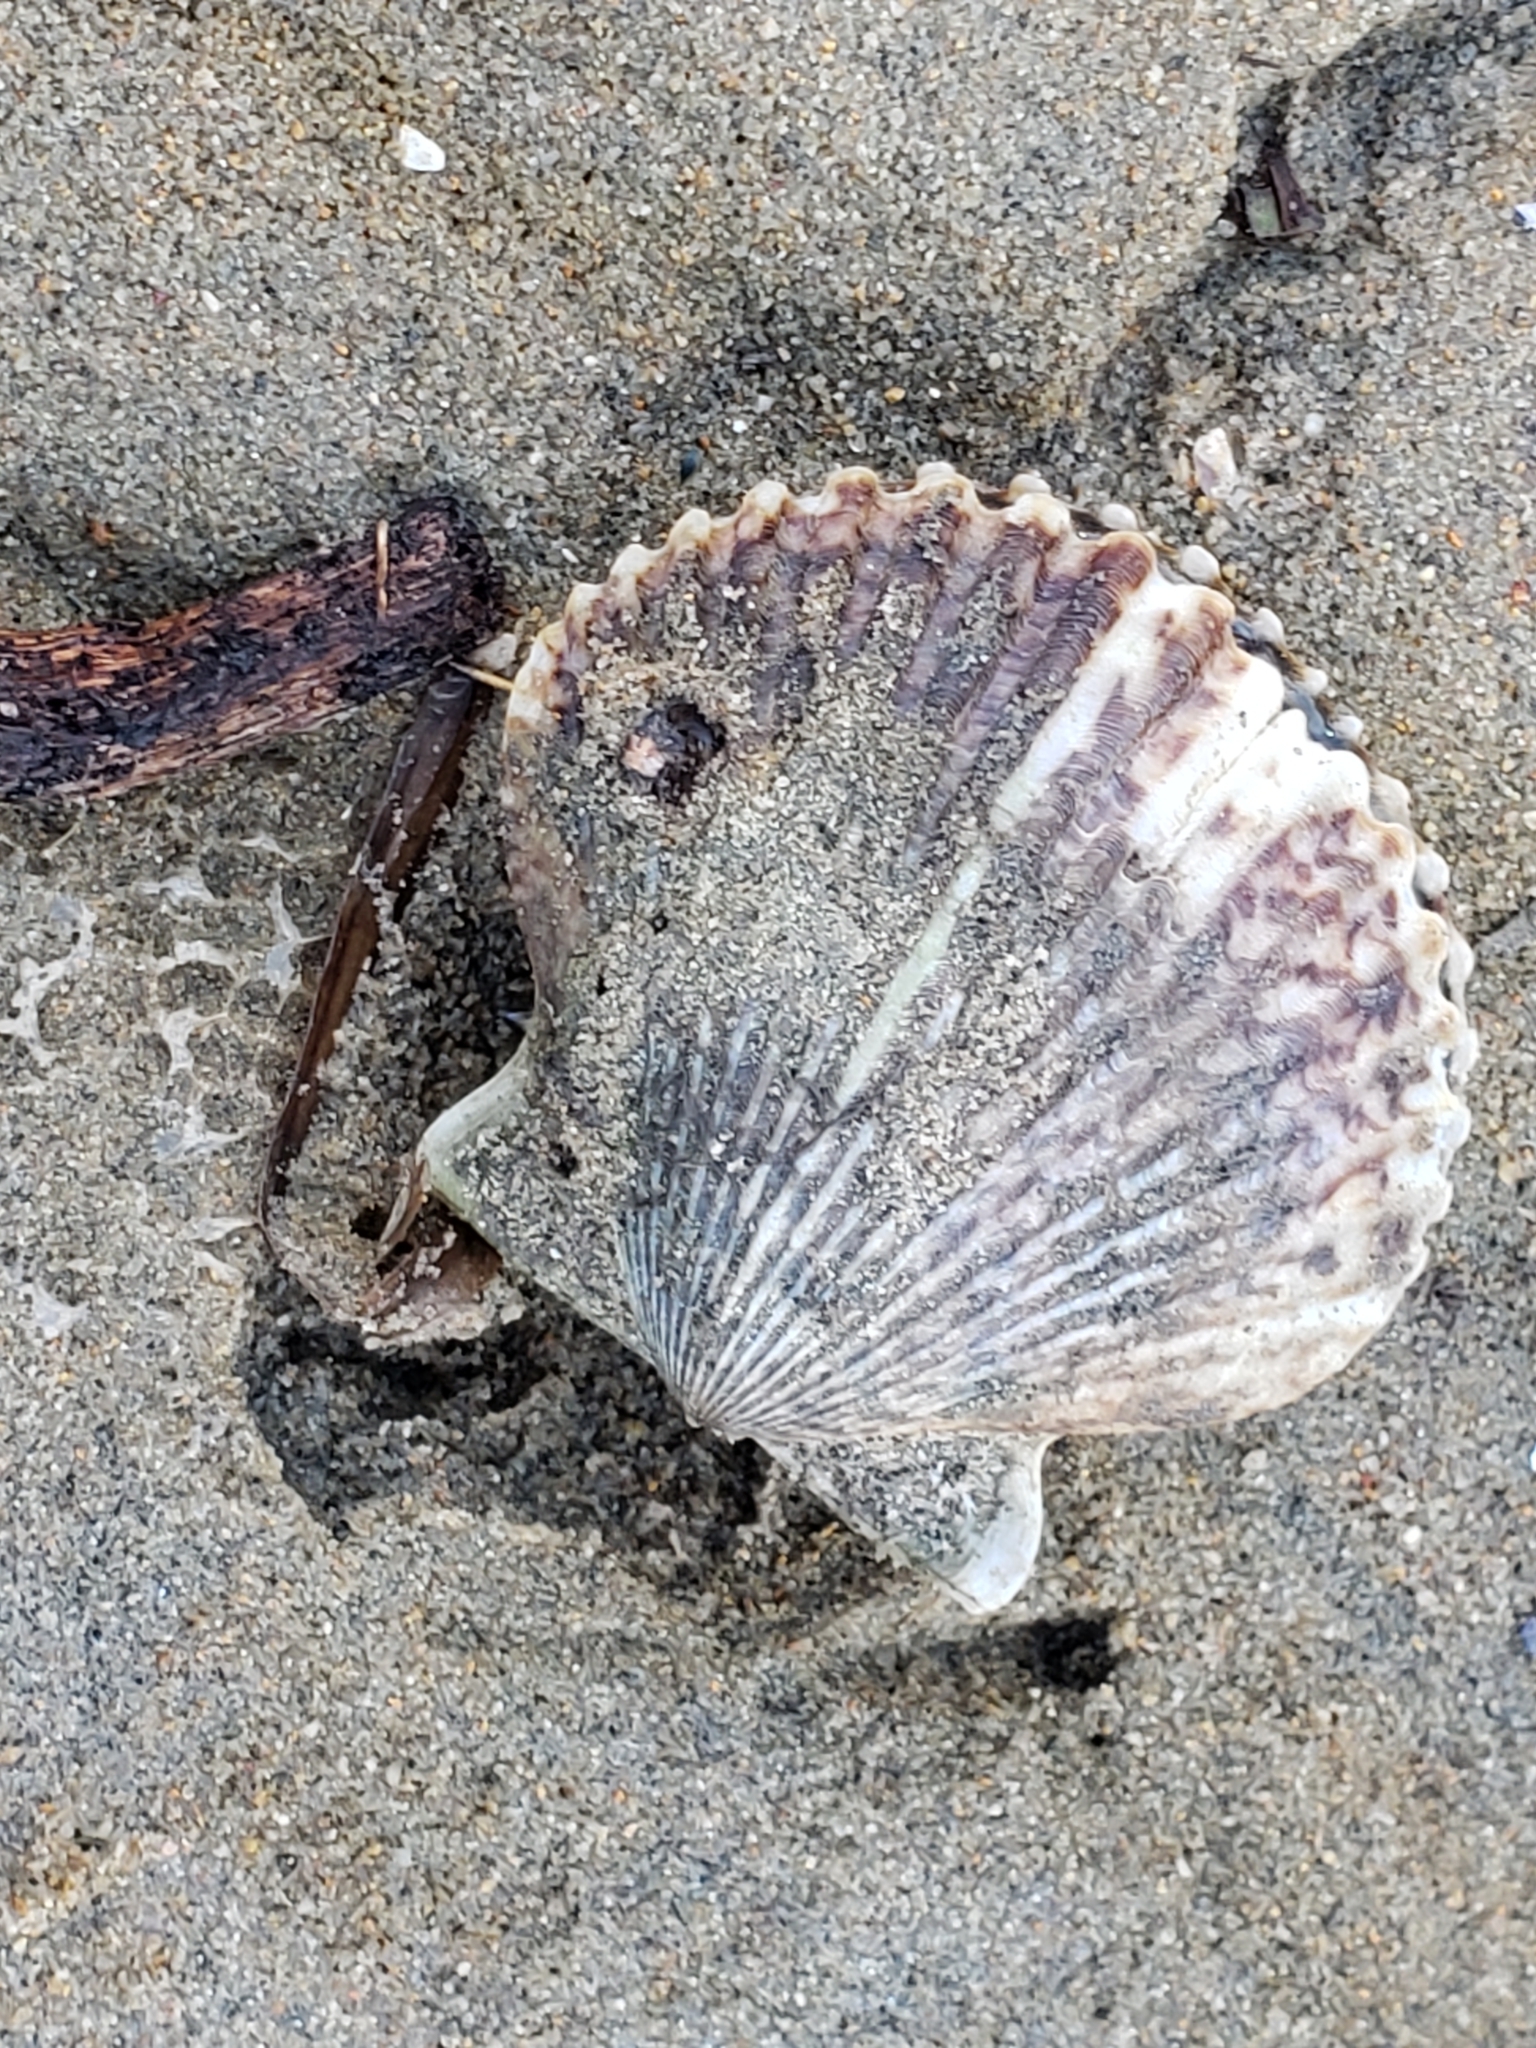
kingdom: Animalia
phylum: Mollusca
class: Bivalvia
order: Pectinida
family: Pectinidae
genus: Argopecten
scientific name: Argopecten ventricosus
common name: Catarina scallop
